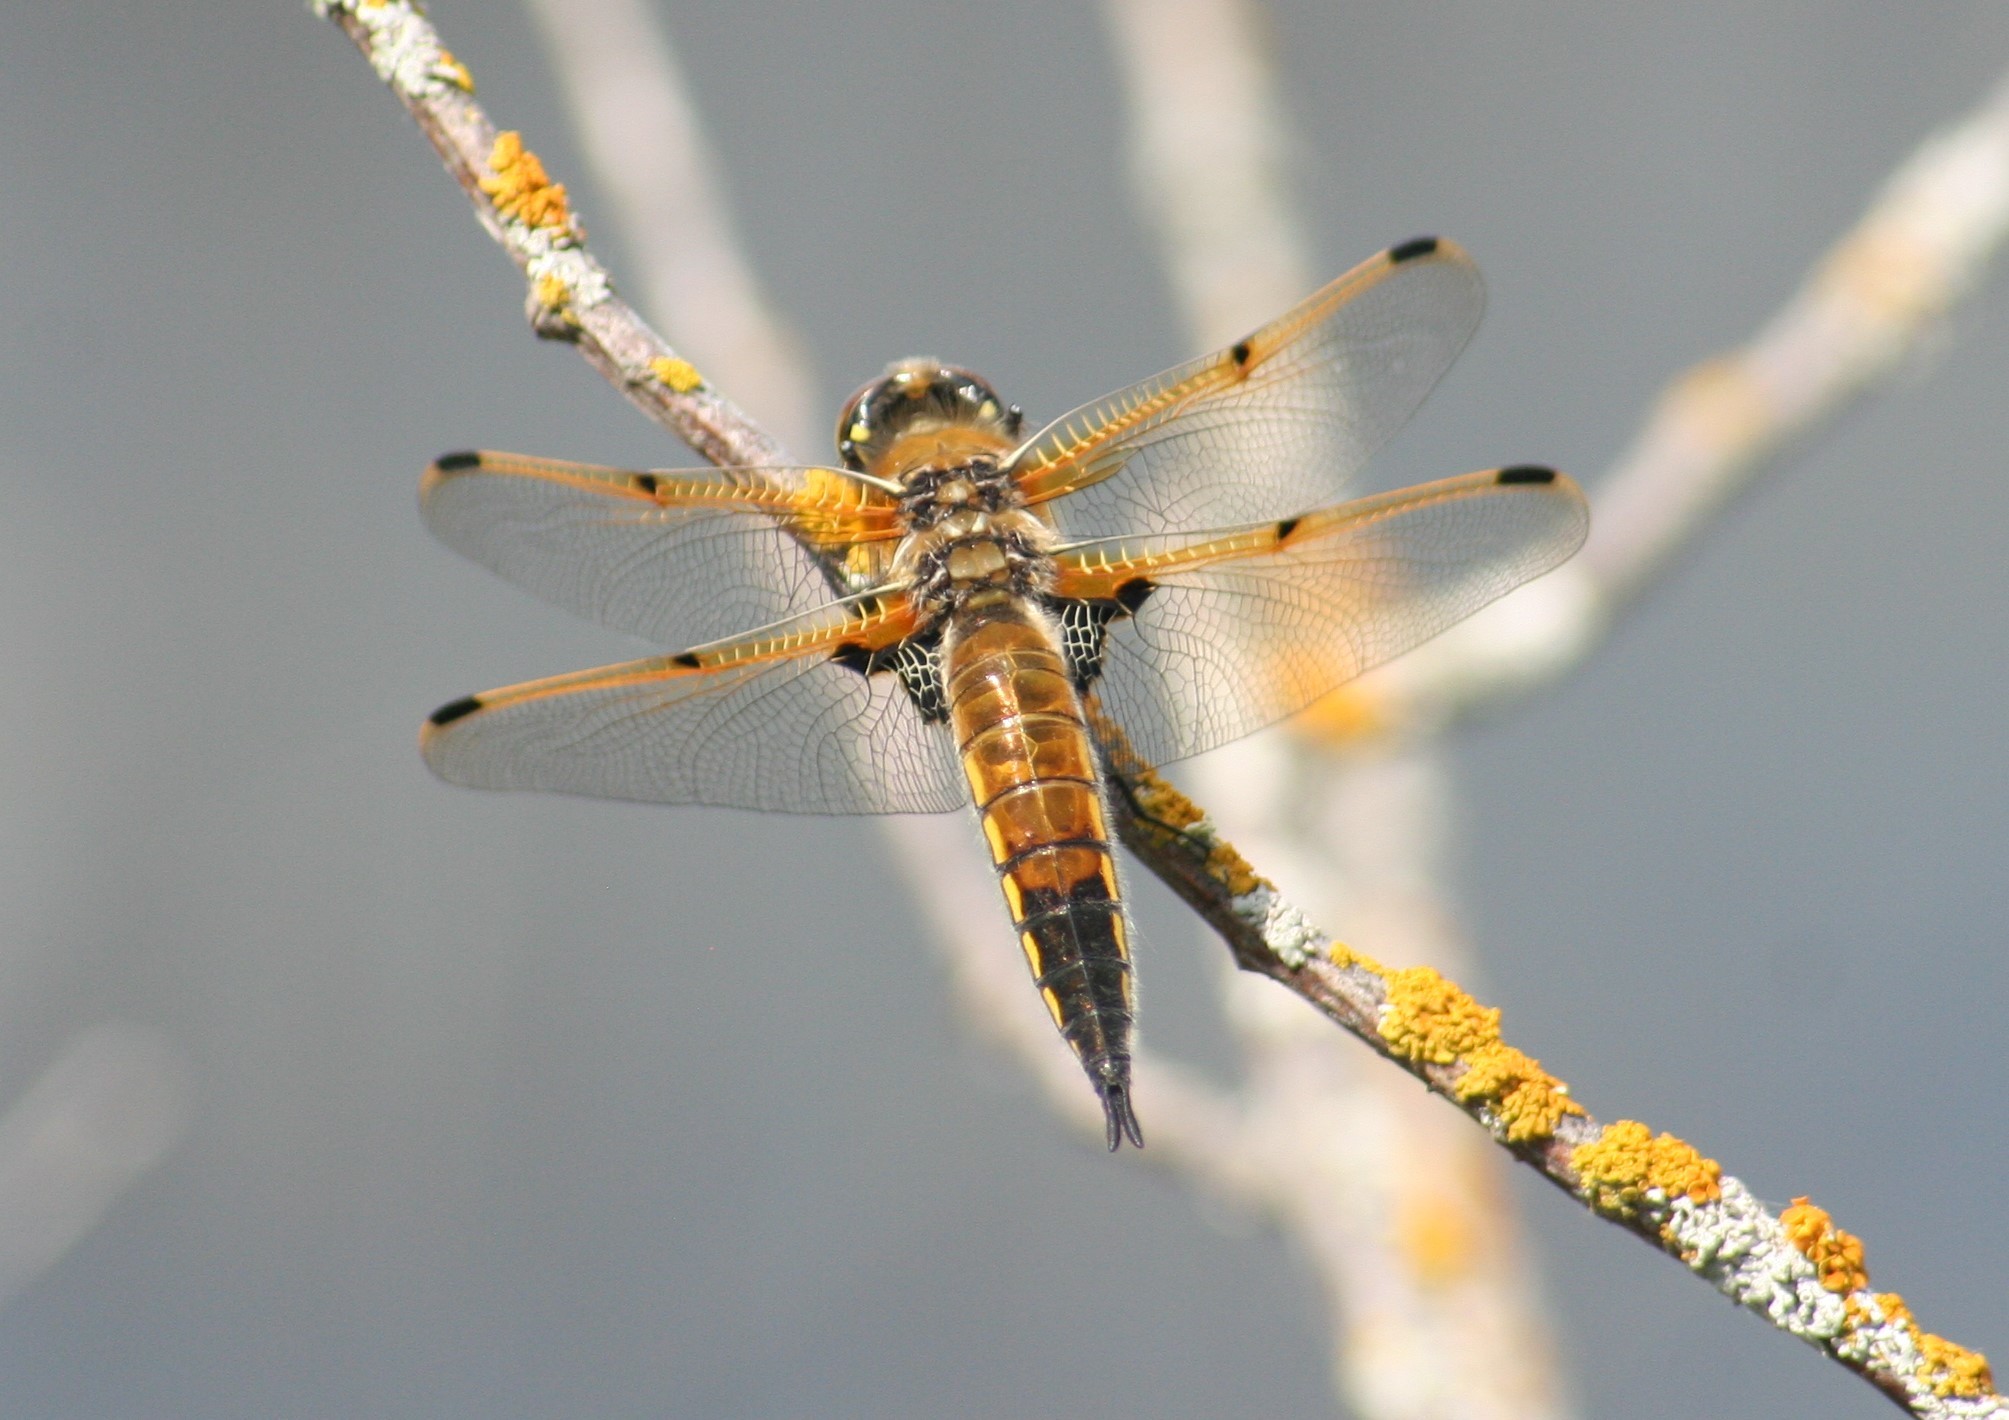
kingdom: Animalia
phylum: Arthropoda
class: Insecta
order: Odonata
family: Libellulidae
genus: Libellula
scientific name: Libellula quadrimaculata
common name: Four-spotted chaser
